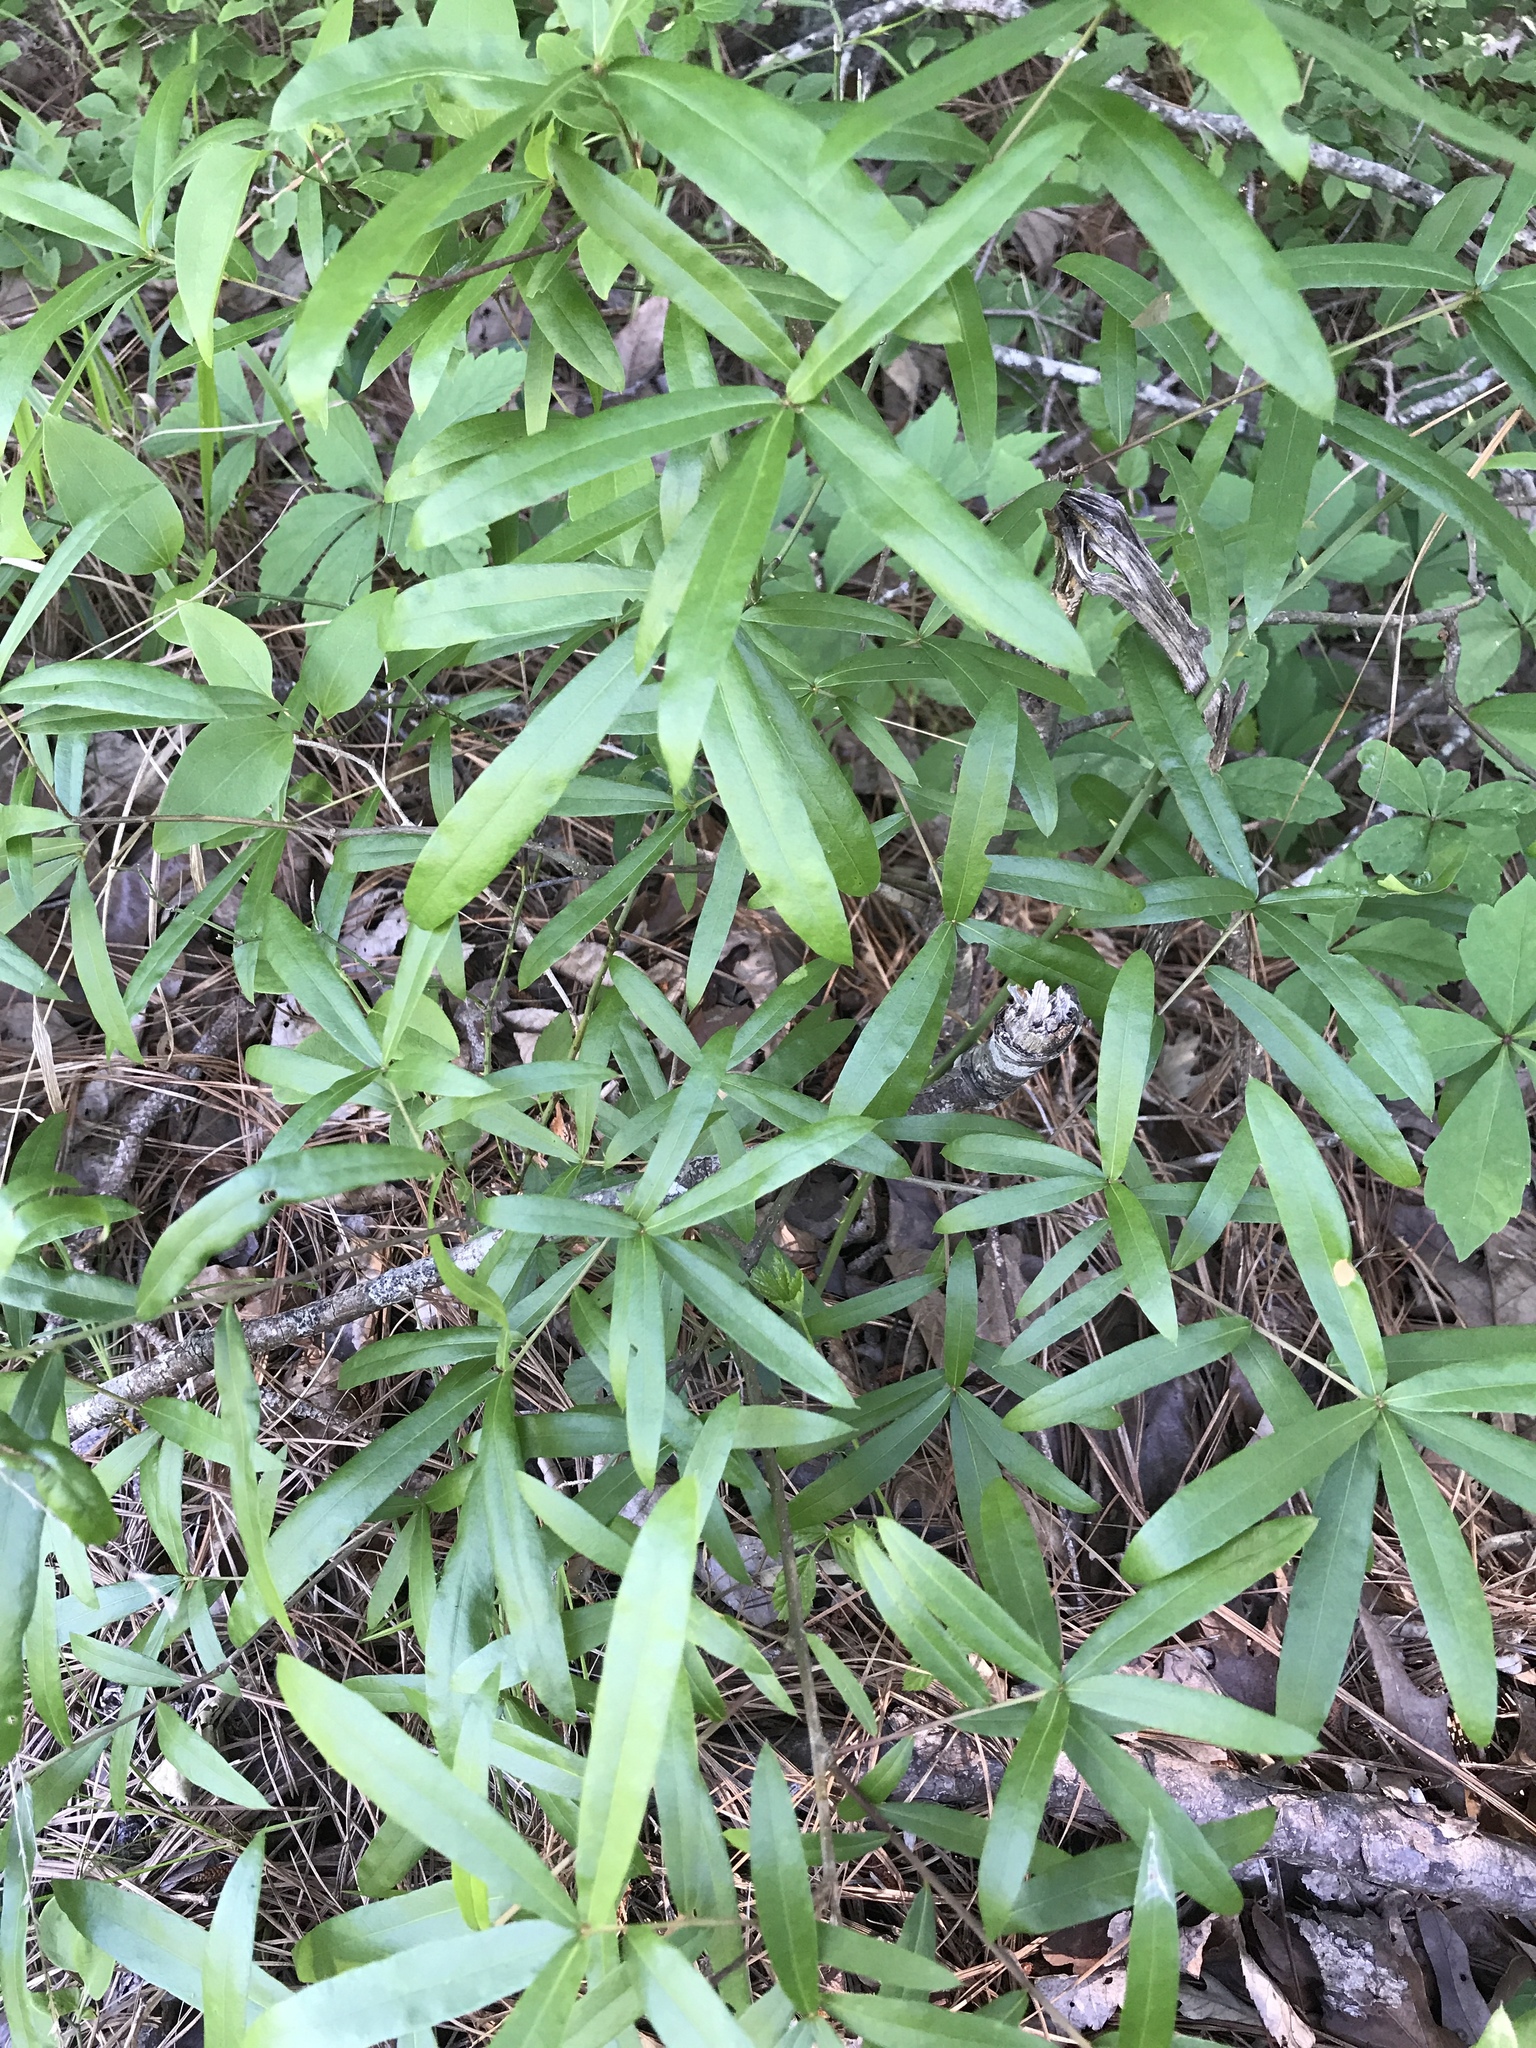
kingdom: Plantae
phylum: Tracheophyta
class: Magnoliopsida
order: Fagales
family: Fagaceae
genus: Quercus
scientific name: Quercus phellos
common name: Willow oak
